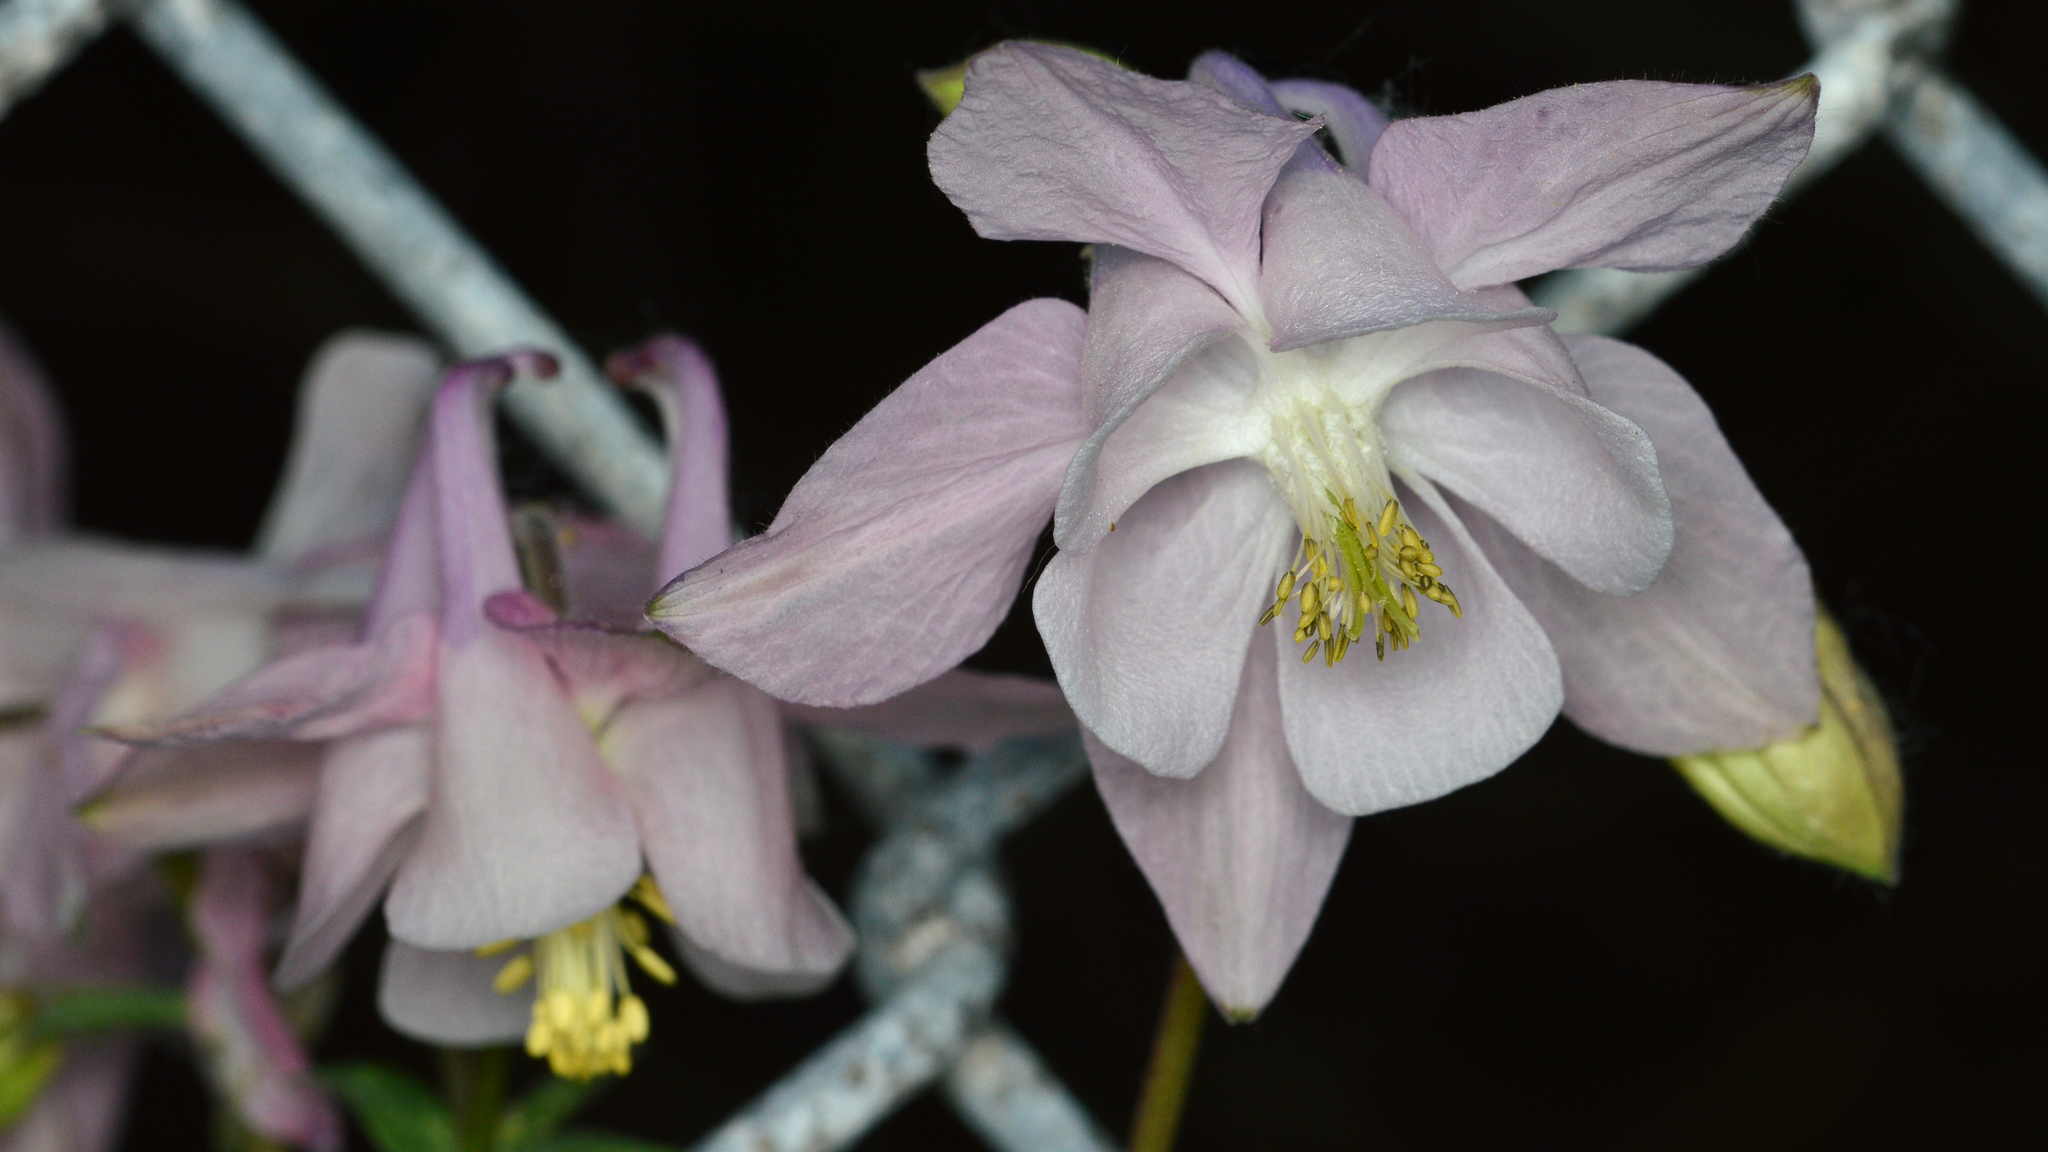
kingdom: Plantae
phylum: Tracheophyta
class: Magnoliopsida
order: Ranunculales
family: Ranunculaceae
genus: Aquilegia
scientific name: Aquilegia vulgaris
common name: Columbine
